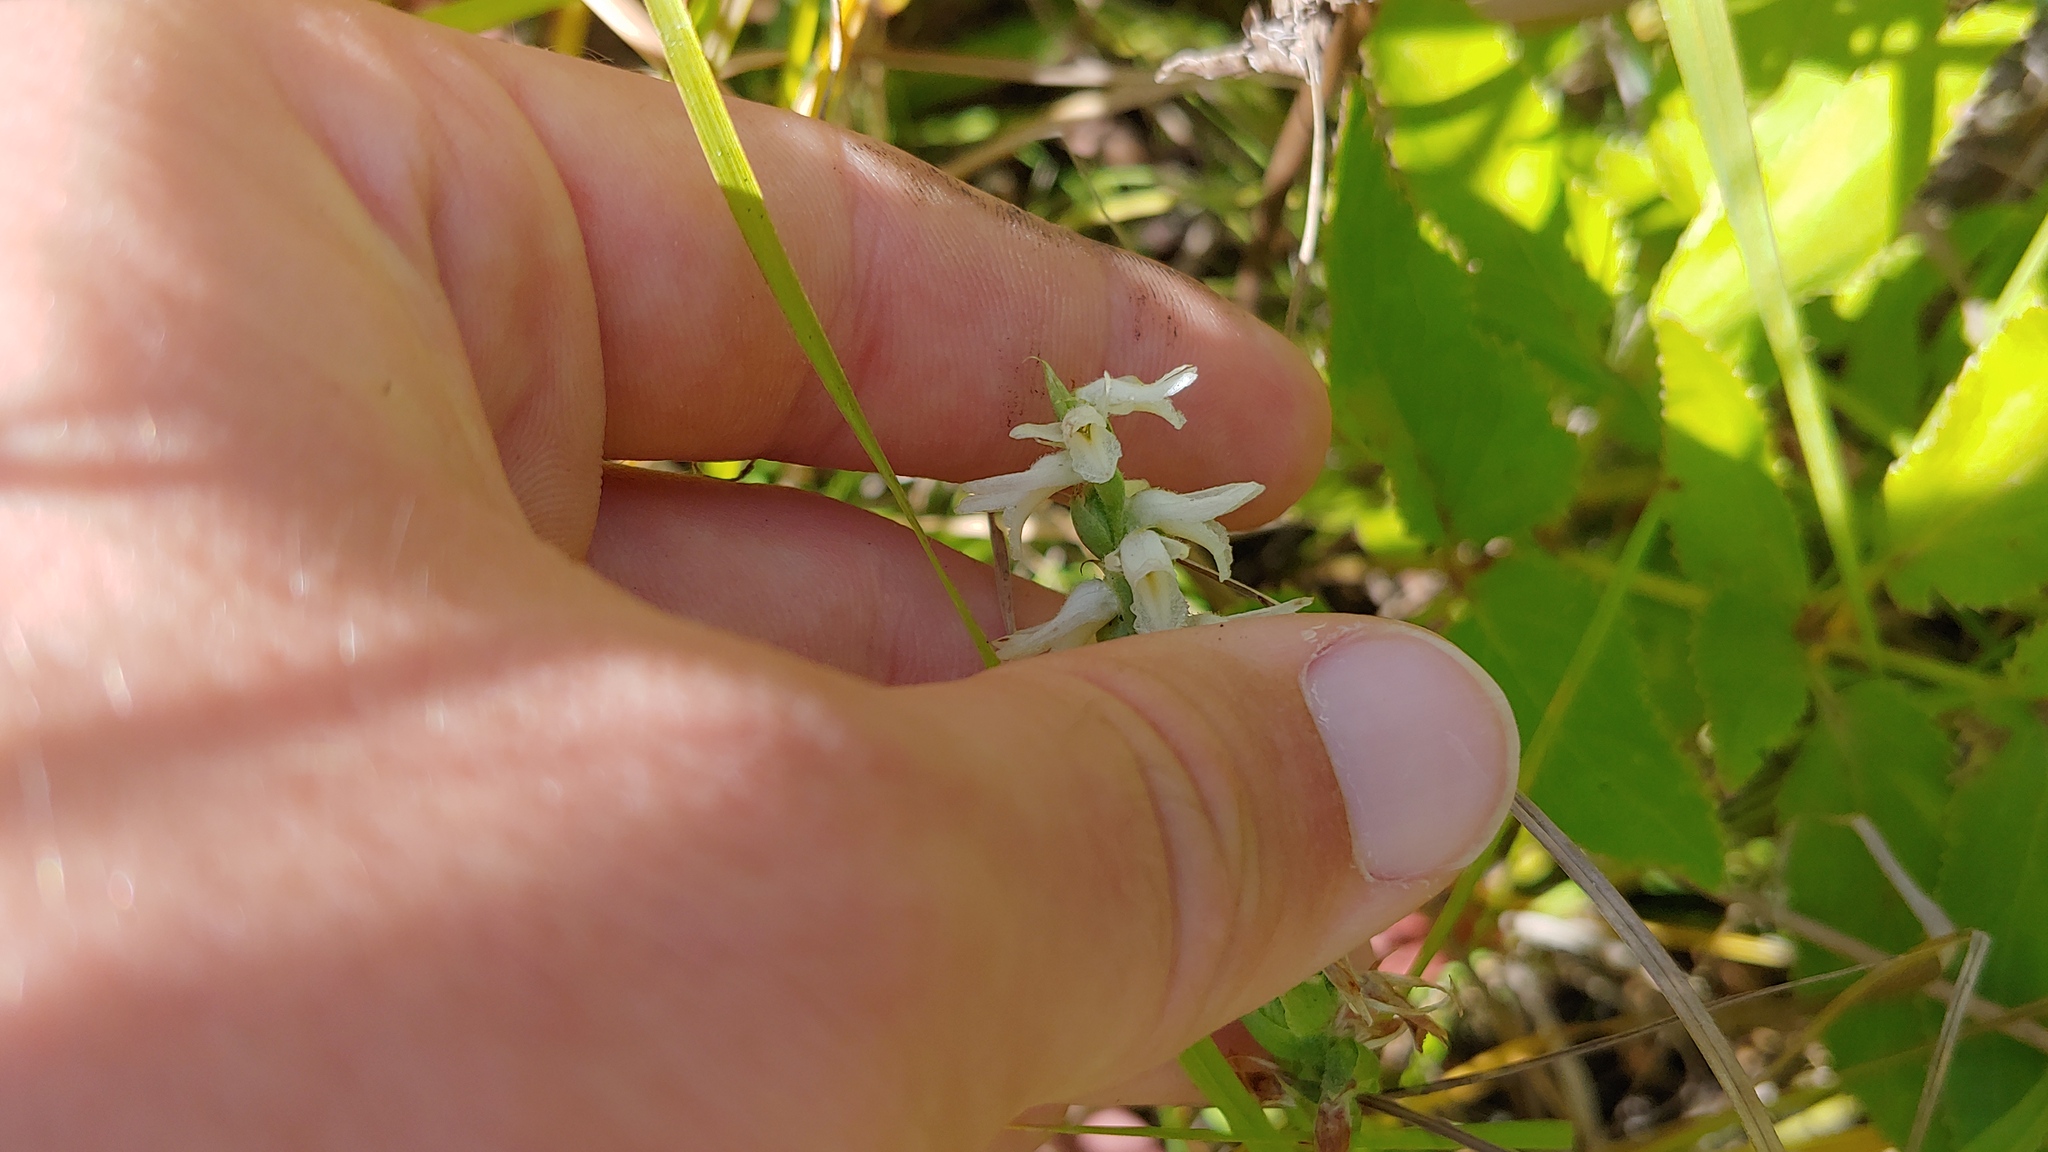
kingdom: Plantae
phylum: Tracheophyta
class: Liliopsida
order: Asparagales
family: Orchidaceae
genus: Spiranthes
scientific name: Spiranthes magnicamporum
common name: Great plains ladies'-tresses
